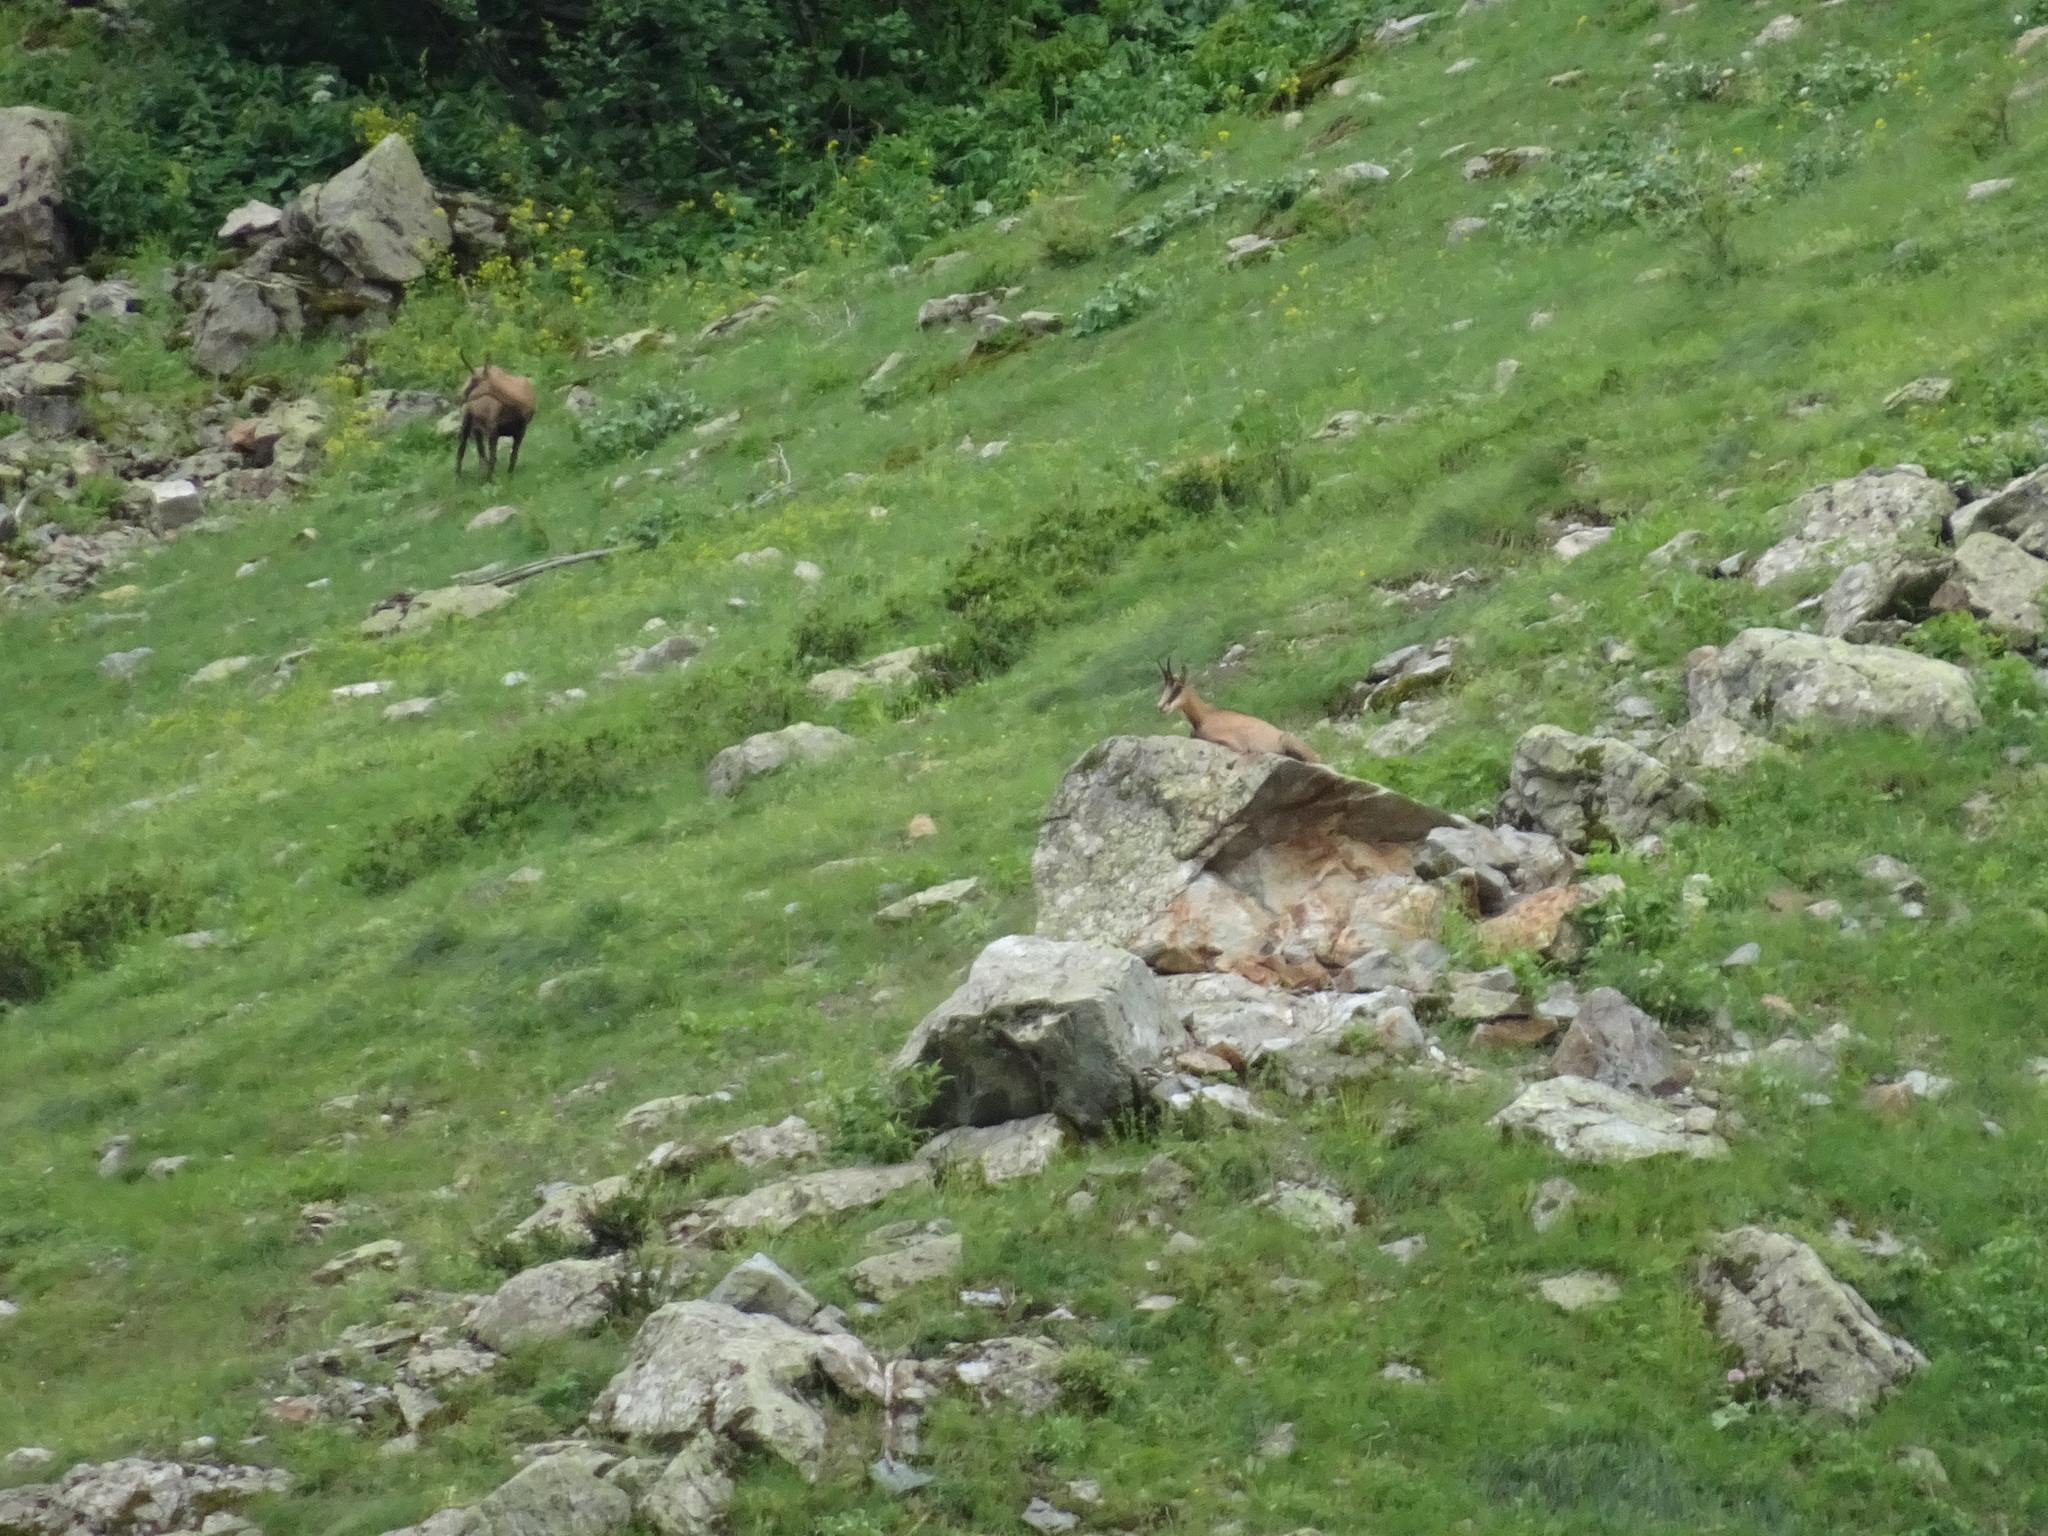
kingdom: Animalia
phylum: Chordata
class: Mammalia
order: Artiodactyla
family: Bovidae
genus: Rupicapra
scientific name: Rupicapra rupicapra
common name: Chamois
